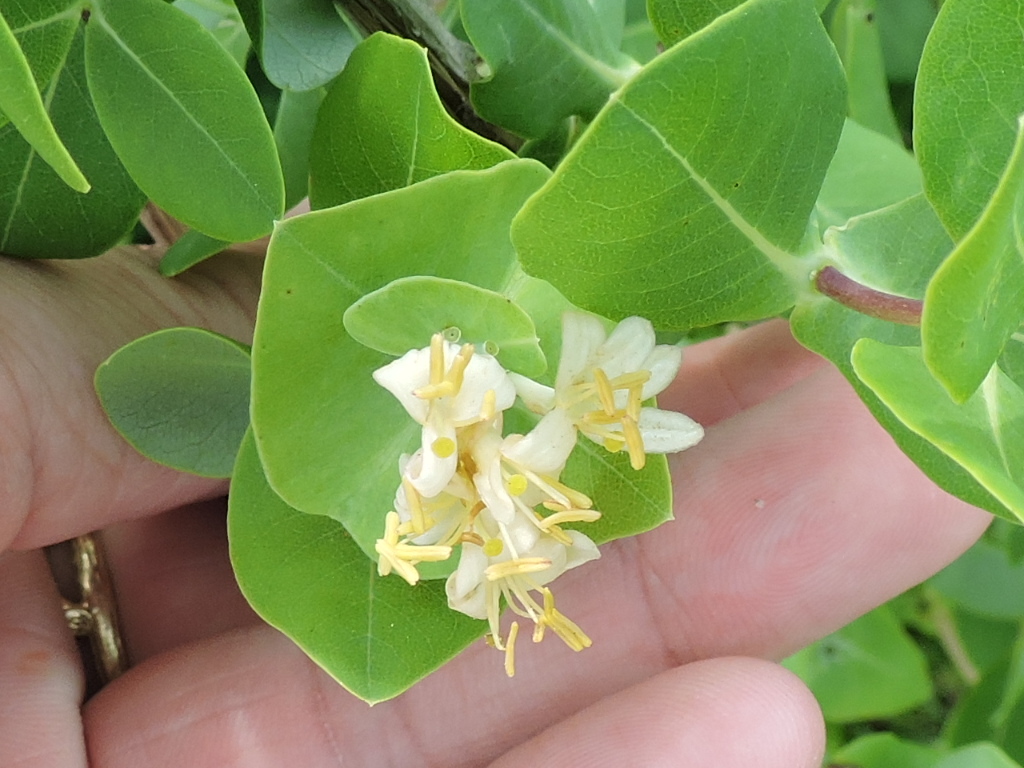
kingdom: Plantae
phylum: Tracheophyta
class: Magnoliopsida
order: Dipsacales
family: Caprifoliaceae
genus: Lonicera
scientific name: Lonicera albiflora
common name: White honeysuckle
